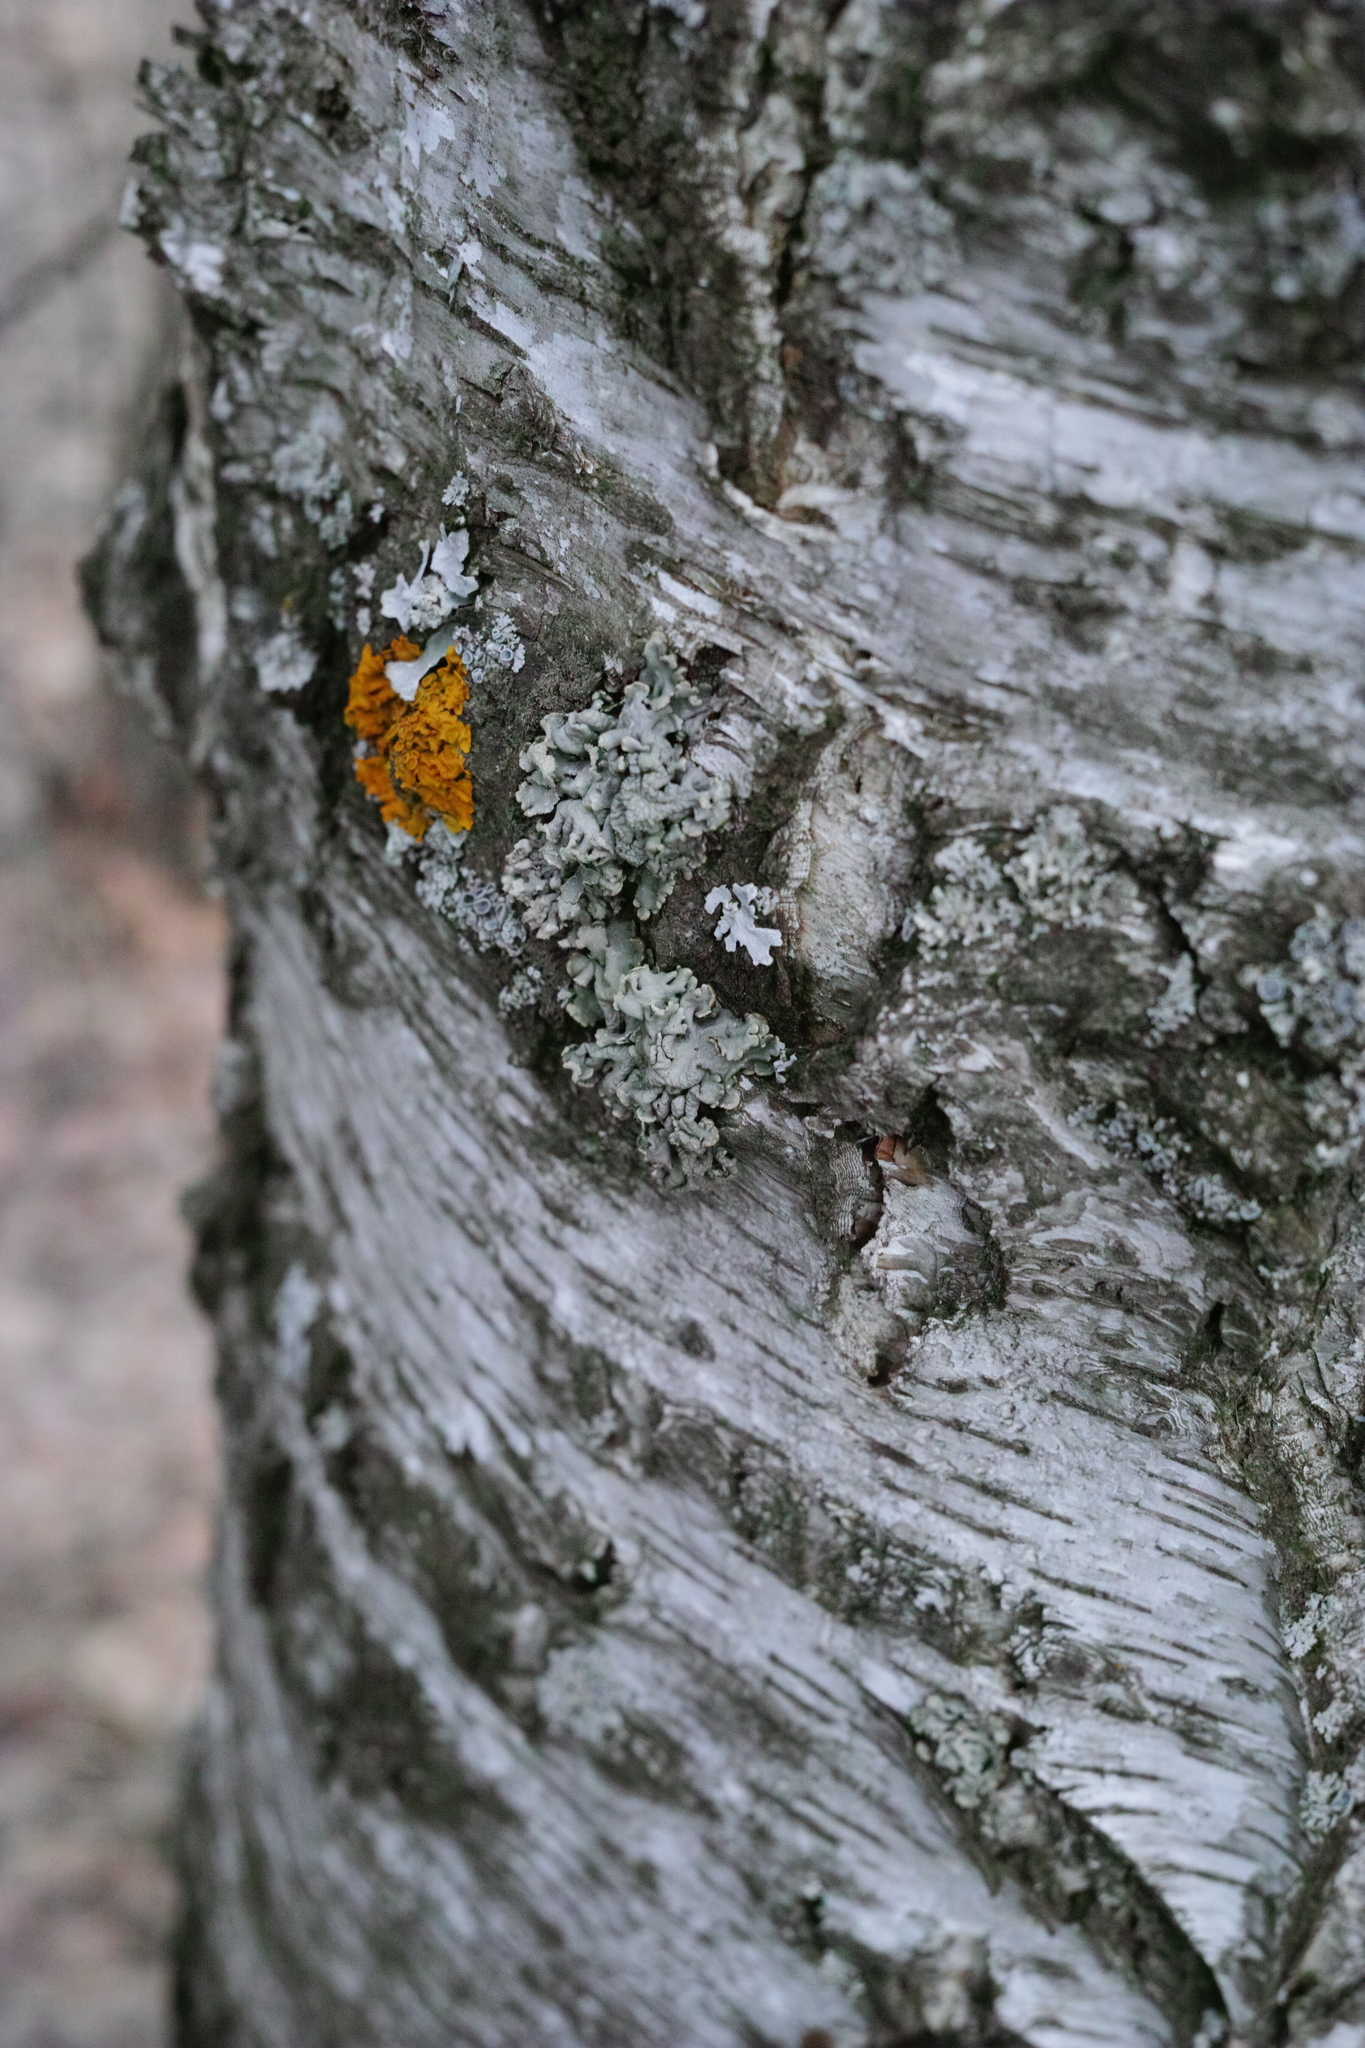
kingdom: Fungi
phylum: Ascomycota
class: Lecanoromycetes
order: Teloschistales
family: Teloschistaceae
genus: Xanthoria
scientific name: Xanthoria parietina
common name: Common orange lichen
